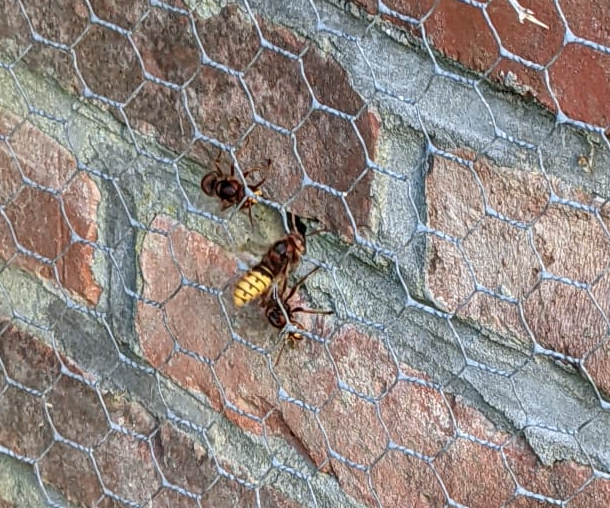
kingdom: Animalia
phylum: Arthropoda
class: Insecta
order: Hymenoptera
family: Vespidae
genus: Vespa
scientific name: Vespa crabro
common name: Hornet
